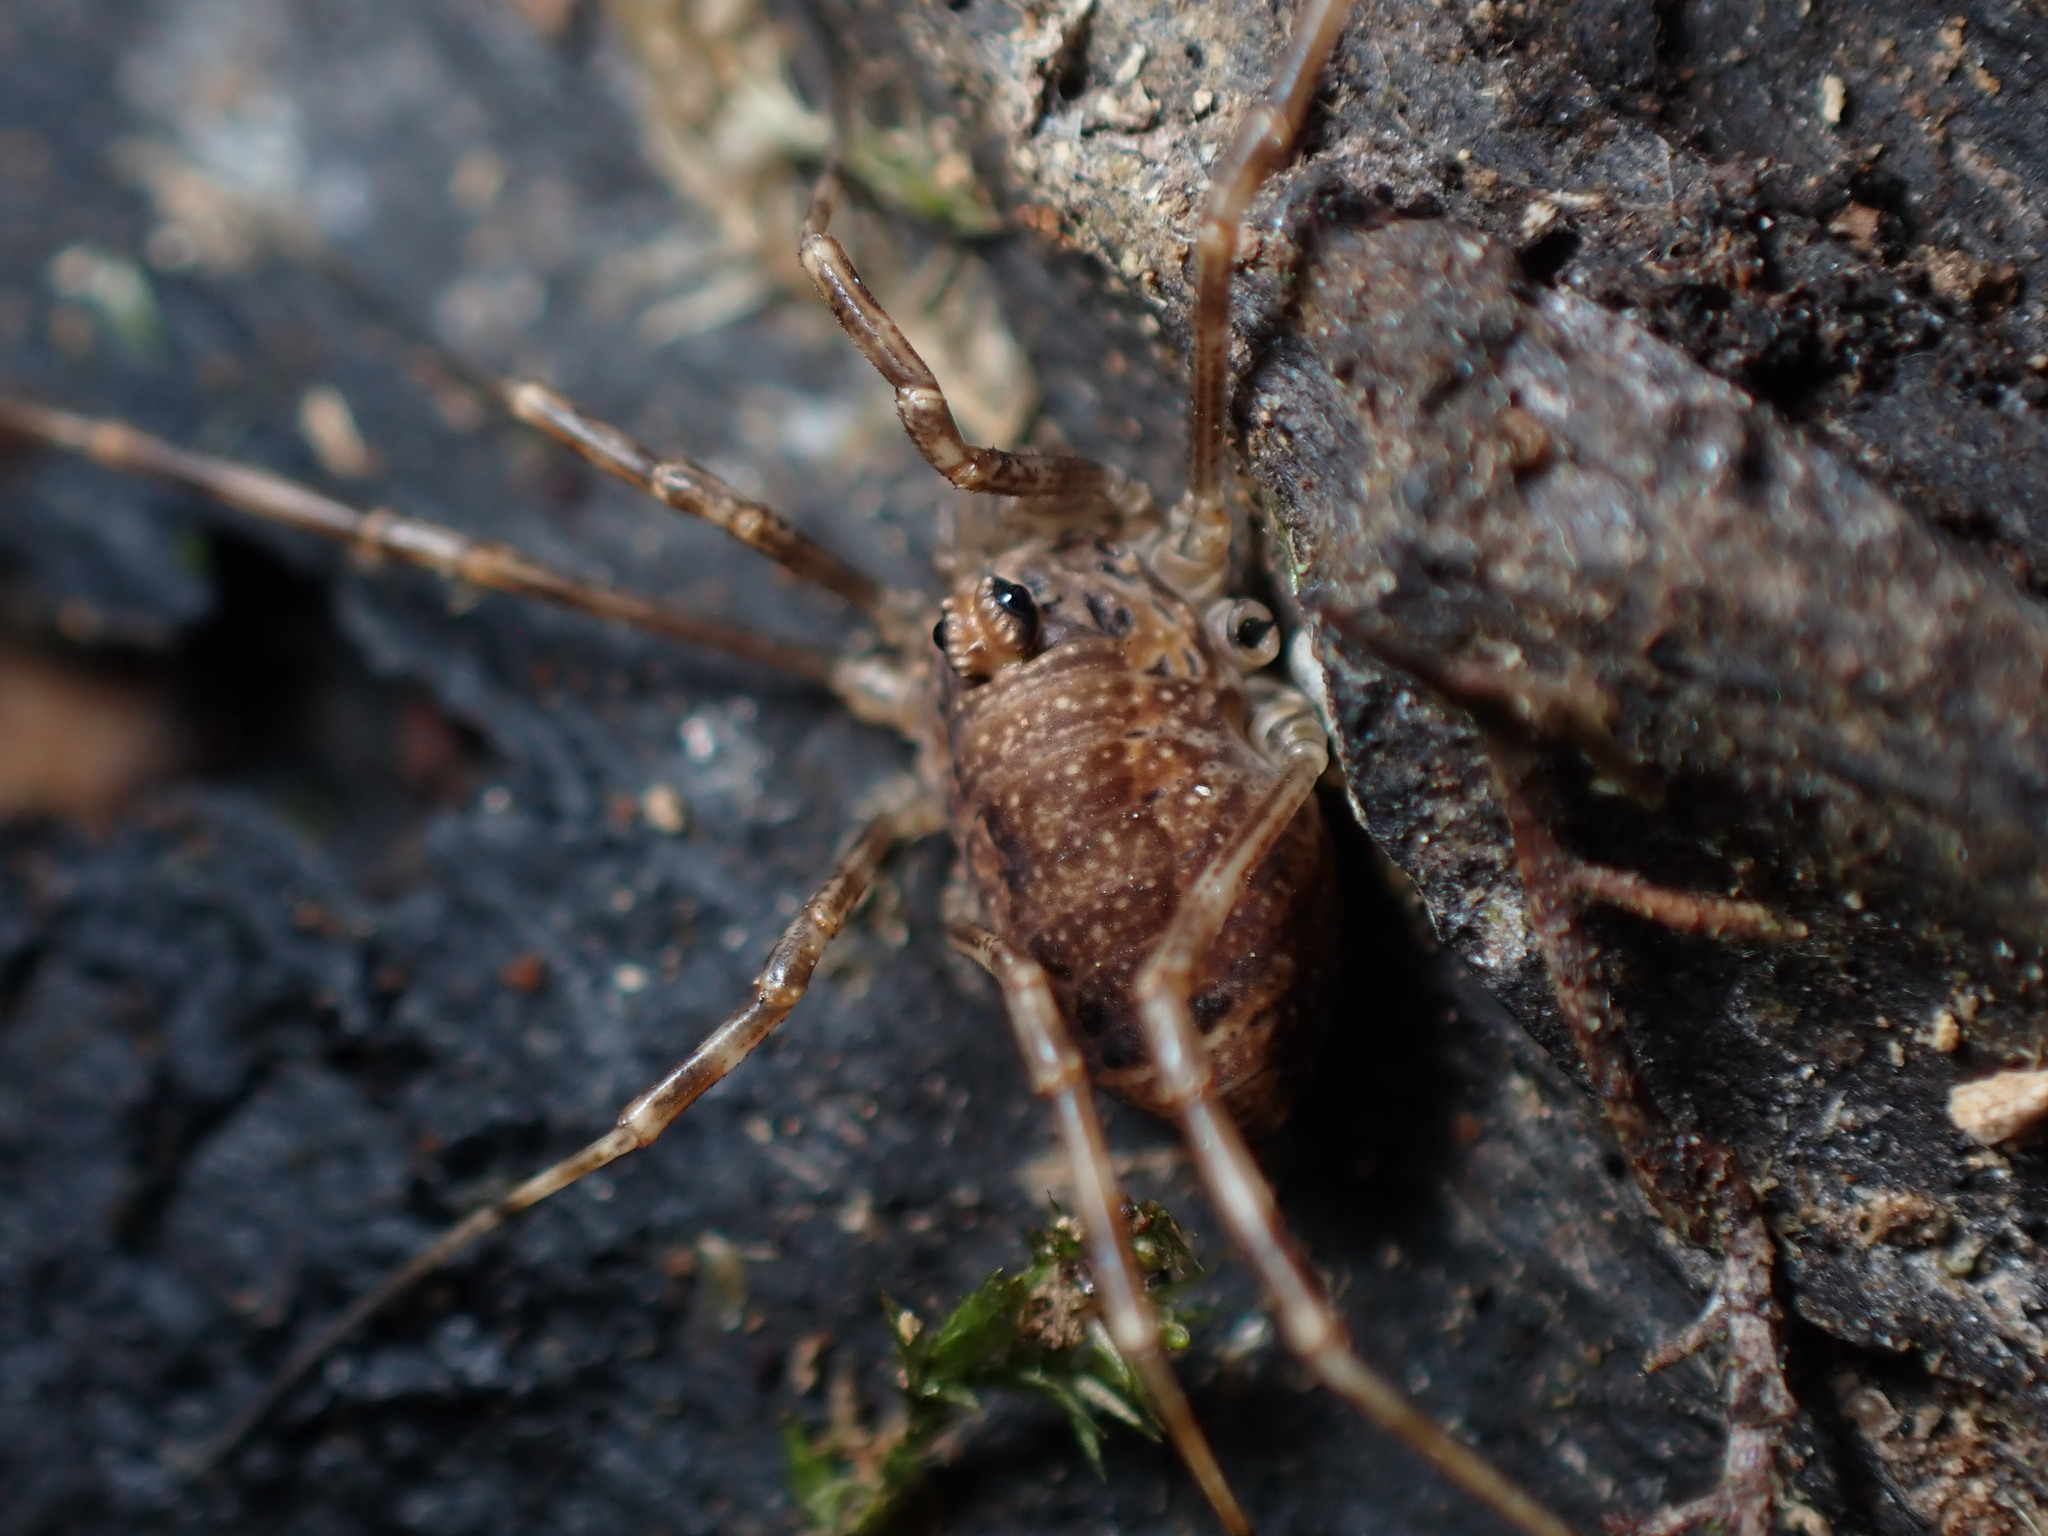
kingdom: Animalia
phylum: Arthropoda
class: Arachnida
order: Opiliones
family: Phalangiidae
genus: Rilaena
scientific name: Rilaena triangularis
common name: Spring harvestman
